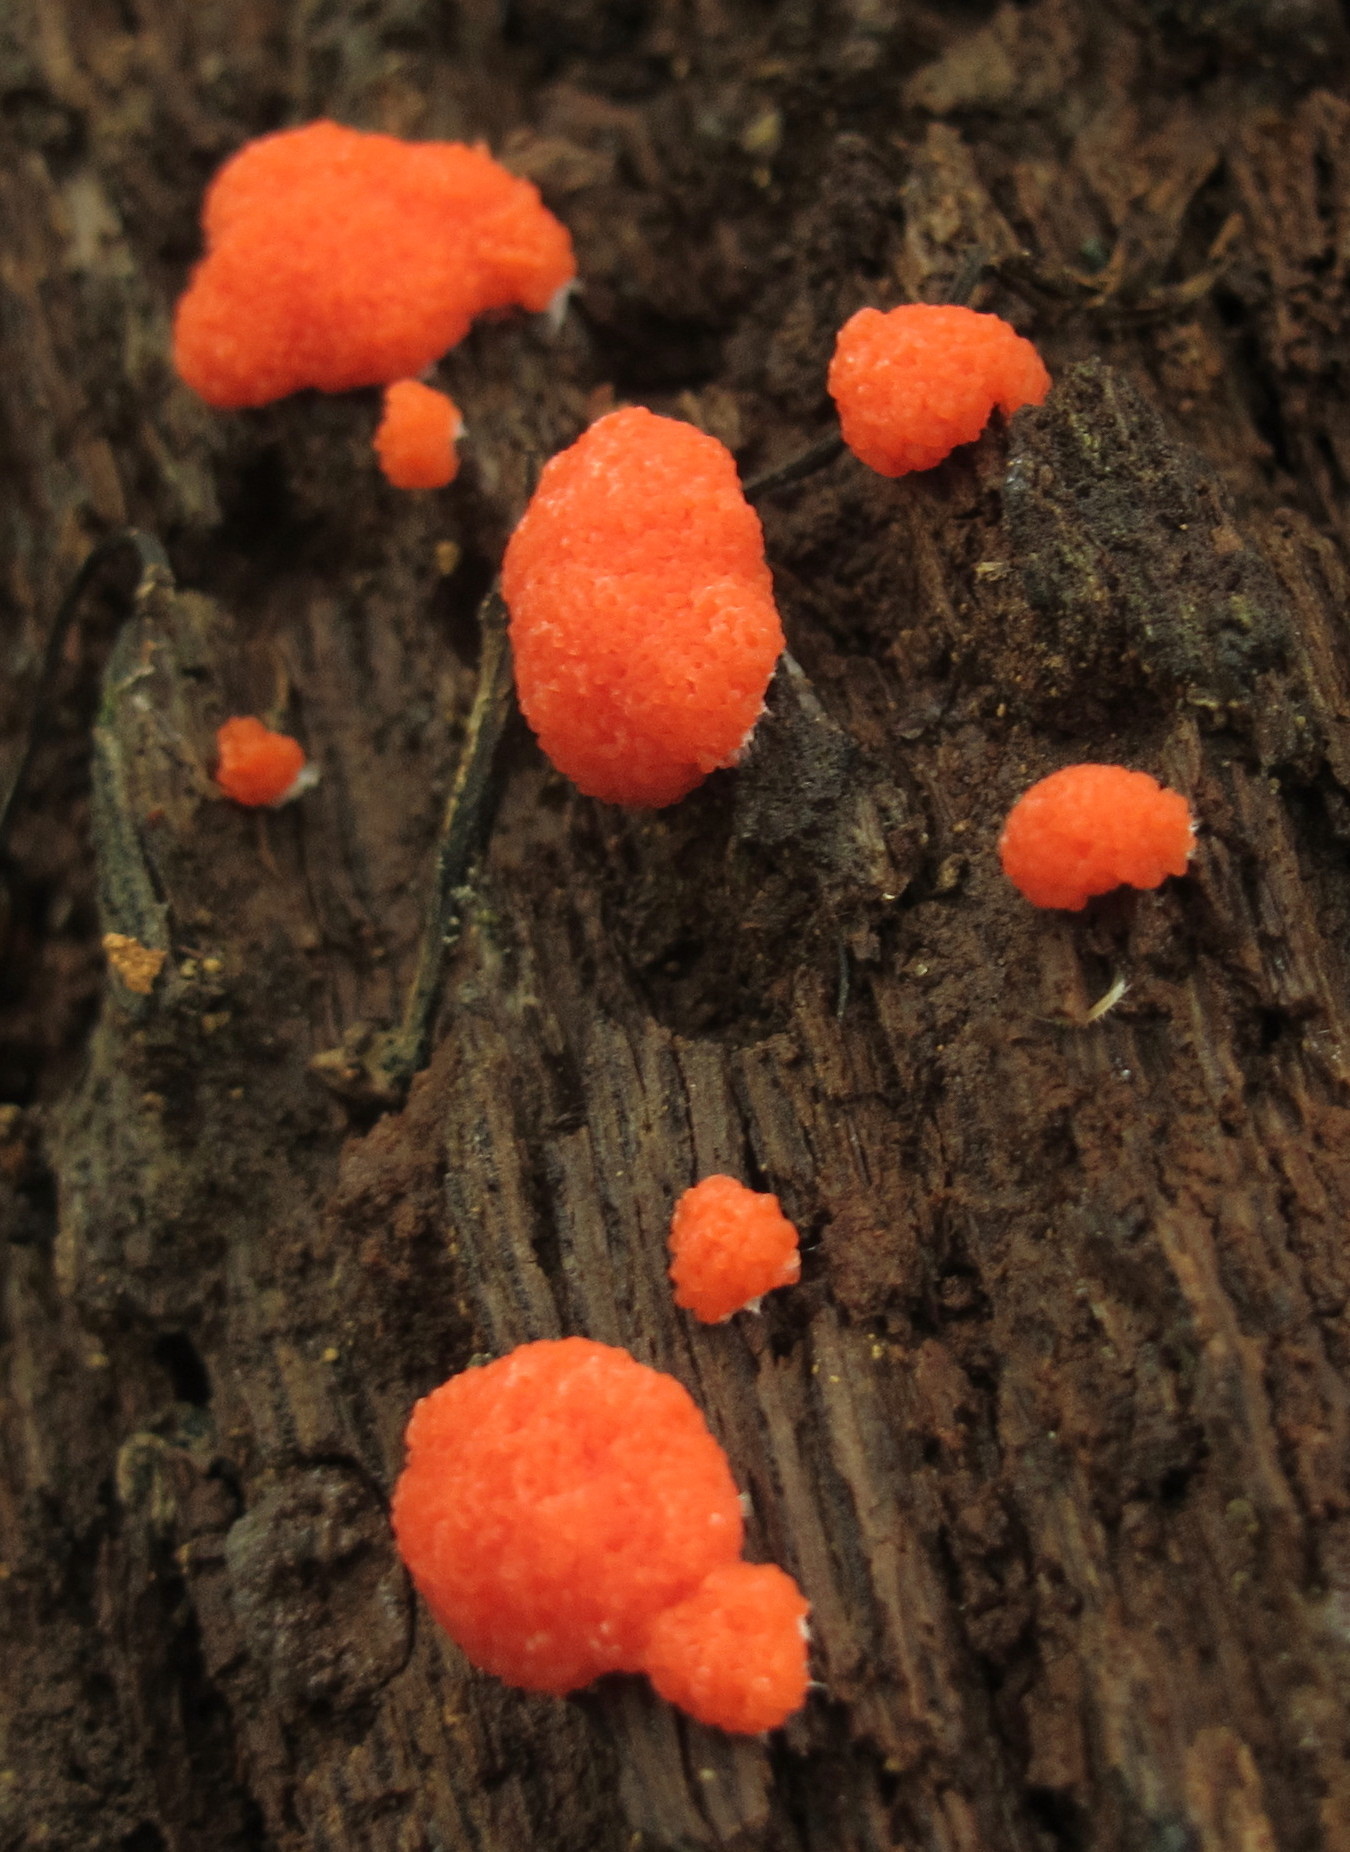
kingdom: Protozoa
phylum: Mycetozoa
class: Myxomycetes
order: Cribrariales
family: Tubiferaceae
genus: Tubifera
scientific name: Tubifera ferruginosa
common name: Red raspberry slime mold
